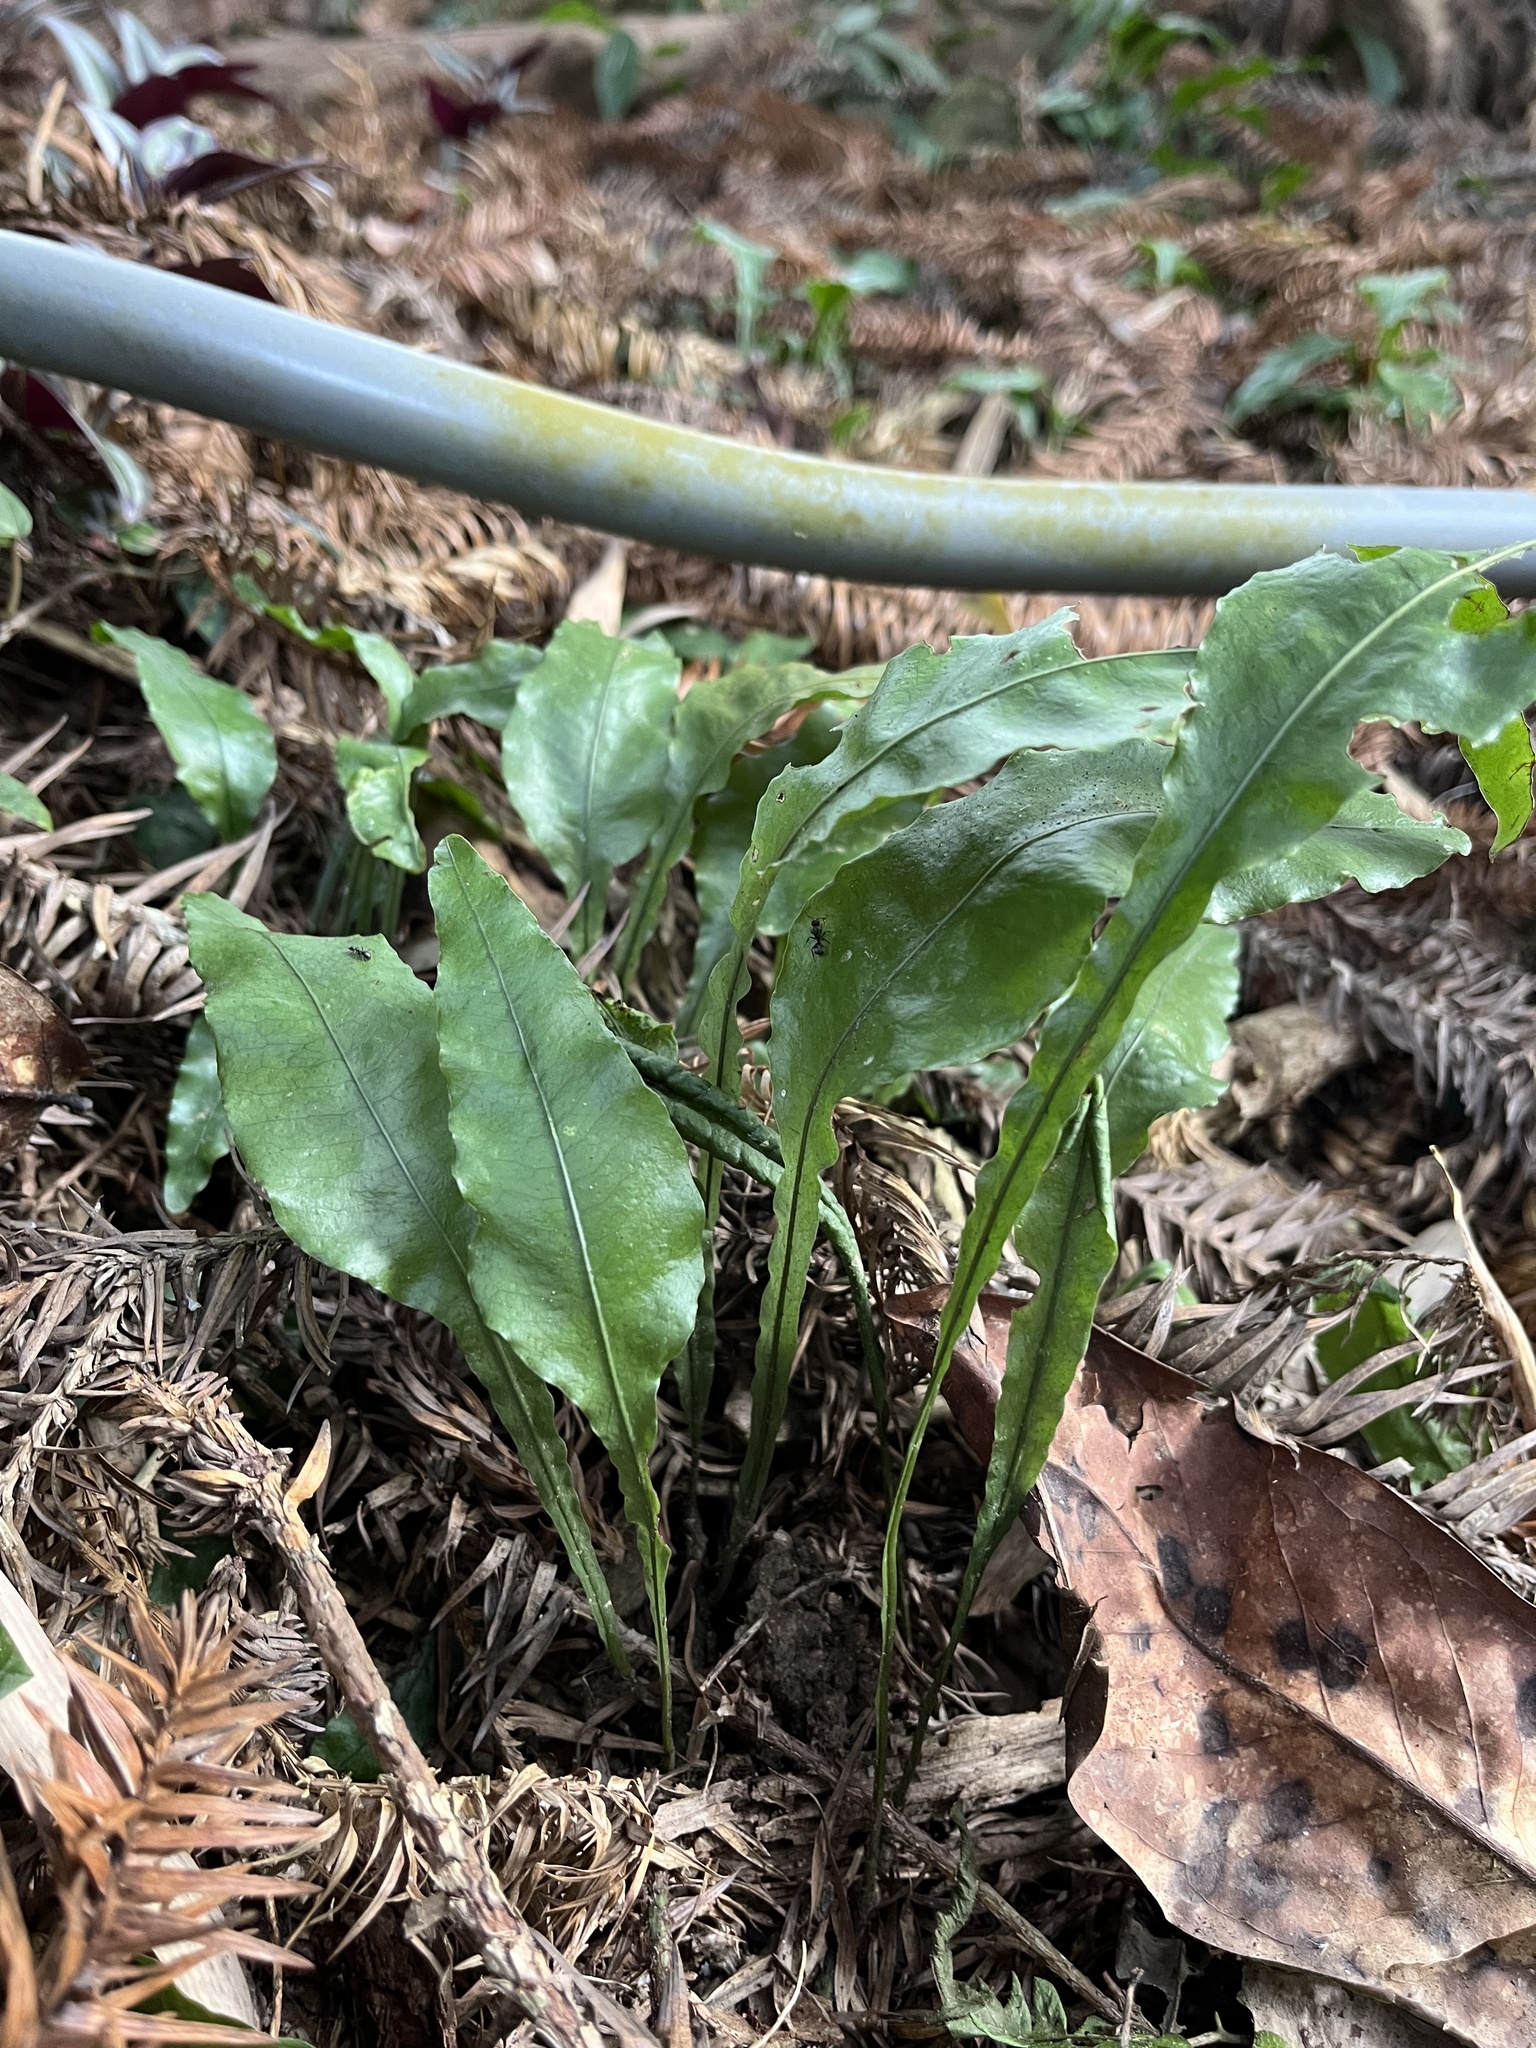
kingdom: Plantae
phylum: Tracheophyta
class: Polypodiopsida
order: Polypodiales
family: Polypodiaceae
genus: Leptochilus
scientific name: Leptochilus wrightii
